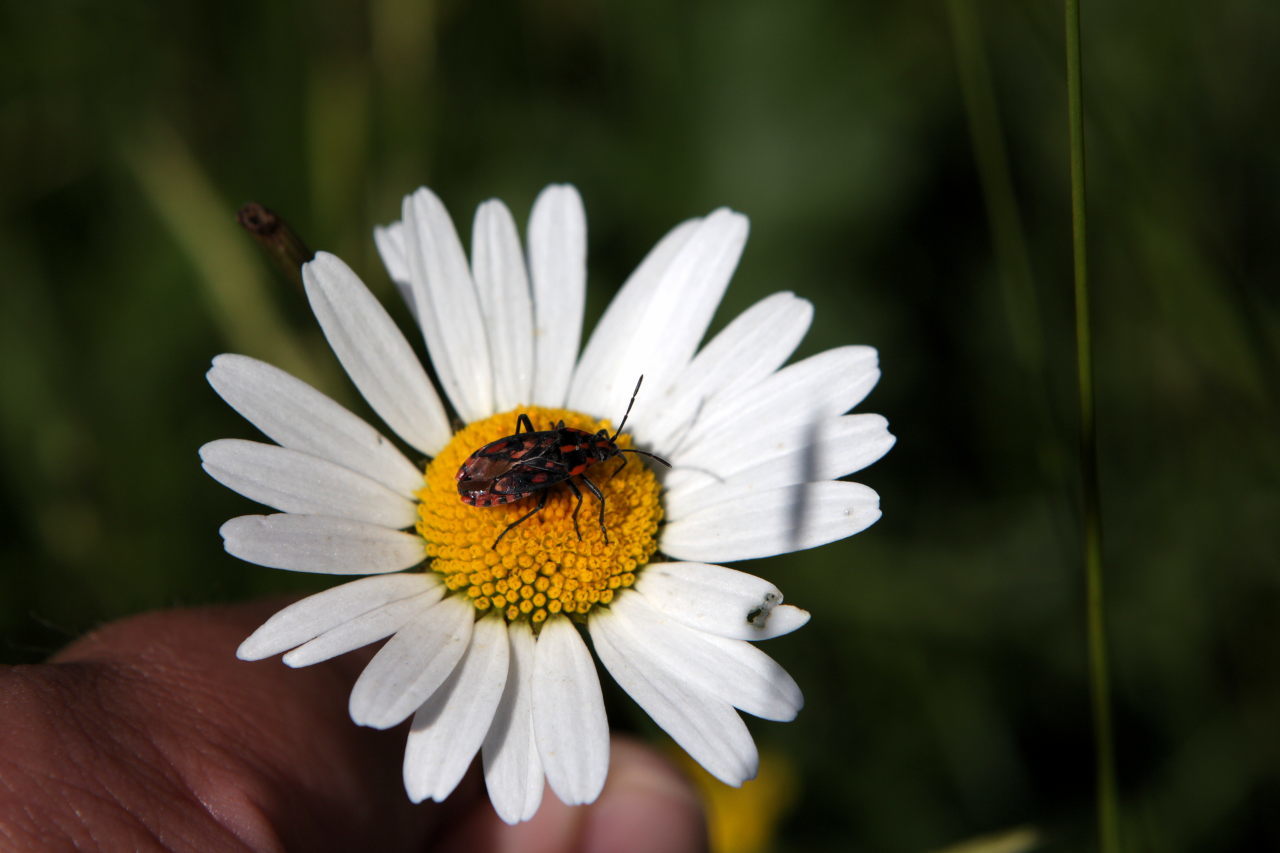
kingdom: Animalia
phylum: Arthropoda
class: Insecta
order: Hemiptera
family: Lygaeidae
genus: Spilostethus
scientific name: Spilostethus saxatilis
